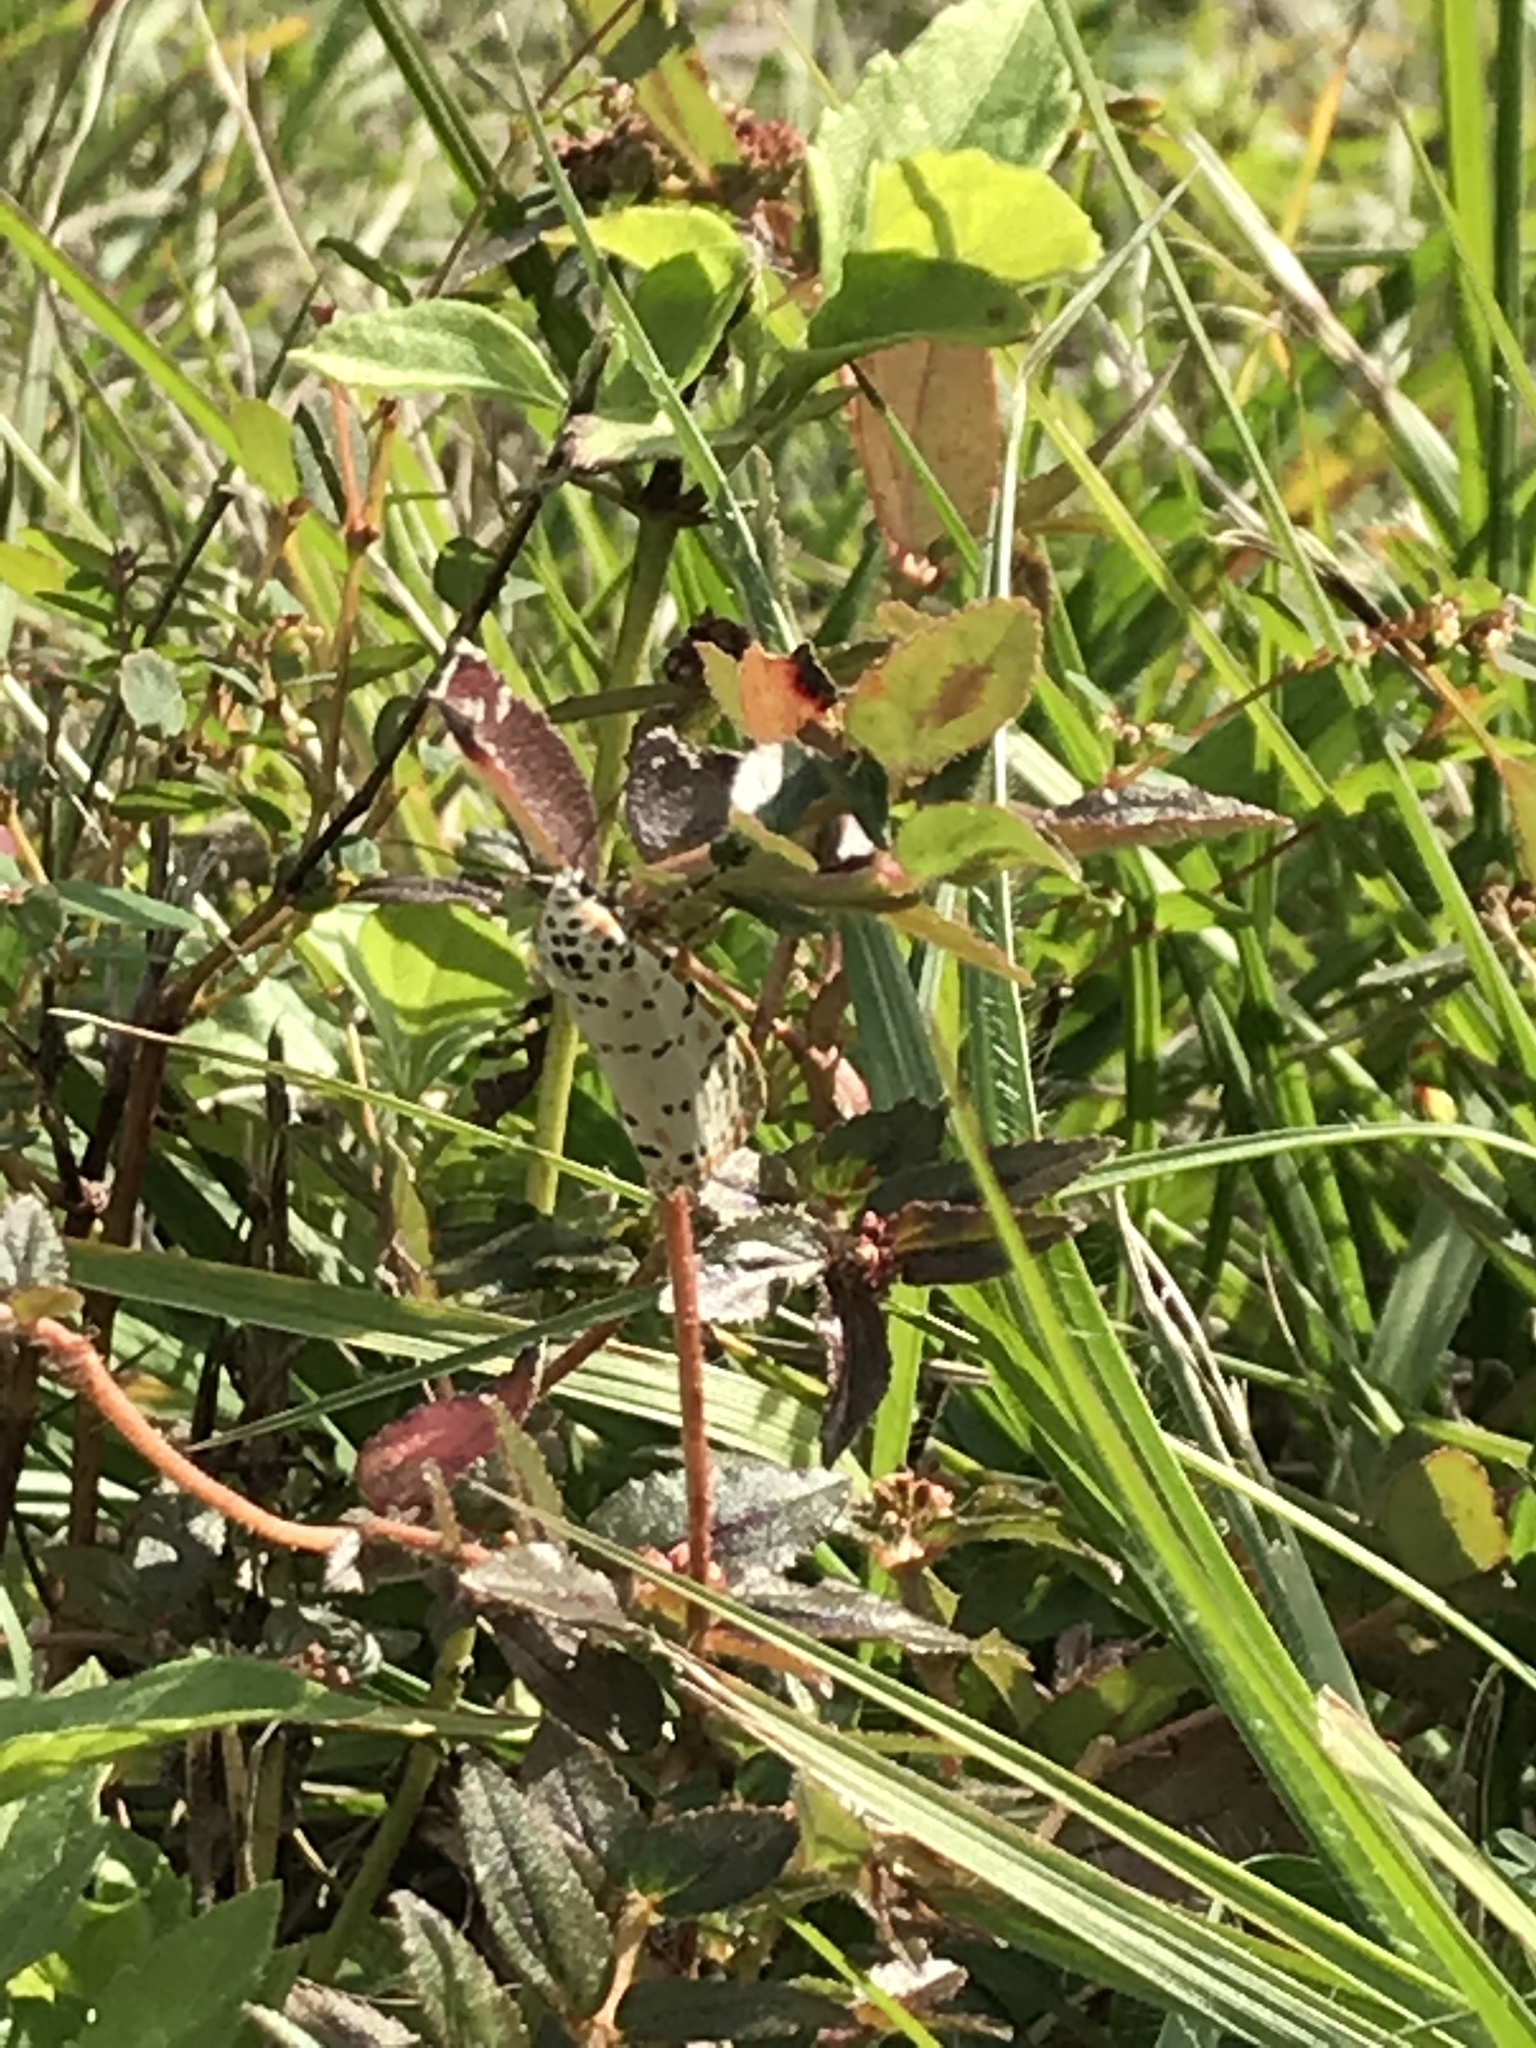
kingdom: Animalia
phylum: Arthropoda
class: Insecta
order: Lepidoptera
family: Erebidae
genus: Utetheisa
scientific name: Utetheisa ornatrix
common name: Beautiful utetheisa
